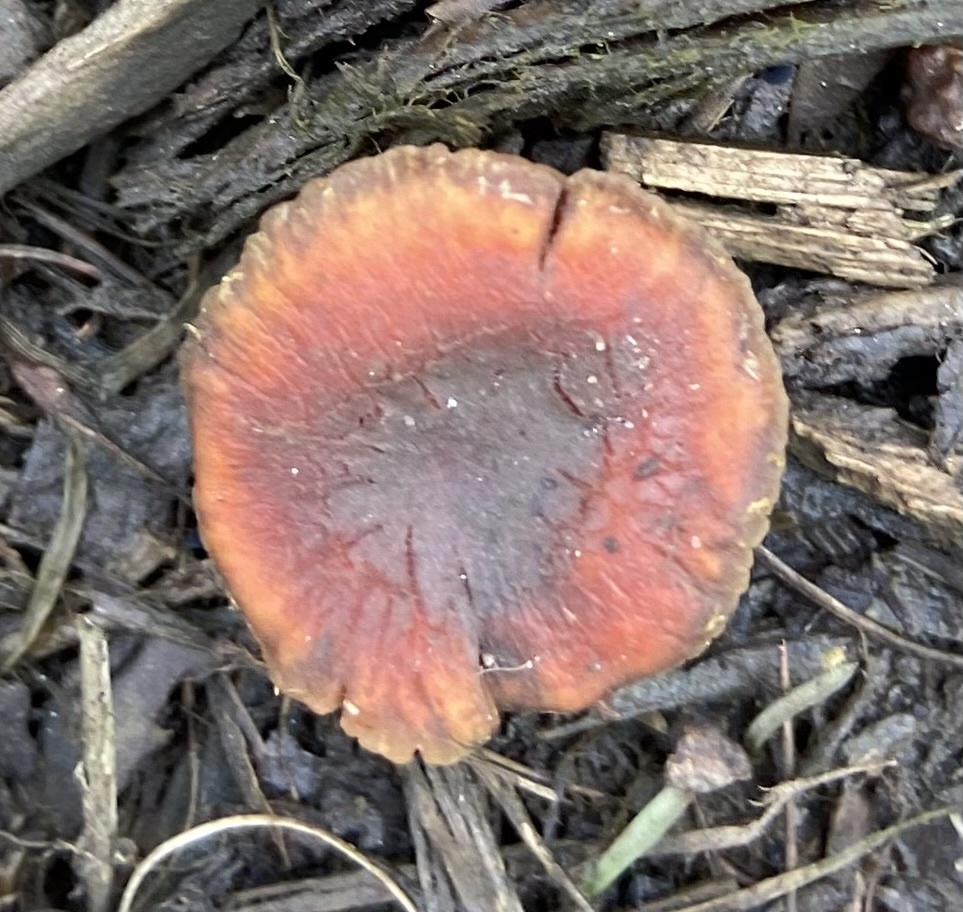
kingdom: Fungi
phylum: Basidiomycota
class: Agaricomycetes
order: Agaricales
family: Strophariaceae
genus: Leratiomyces
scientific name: Leratiomyces ceres
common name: Redlead roundhead
